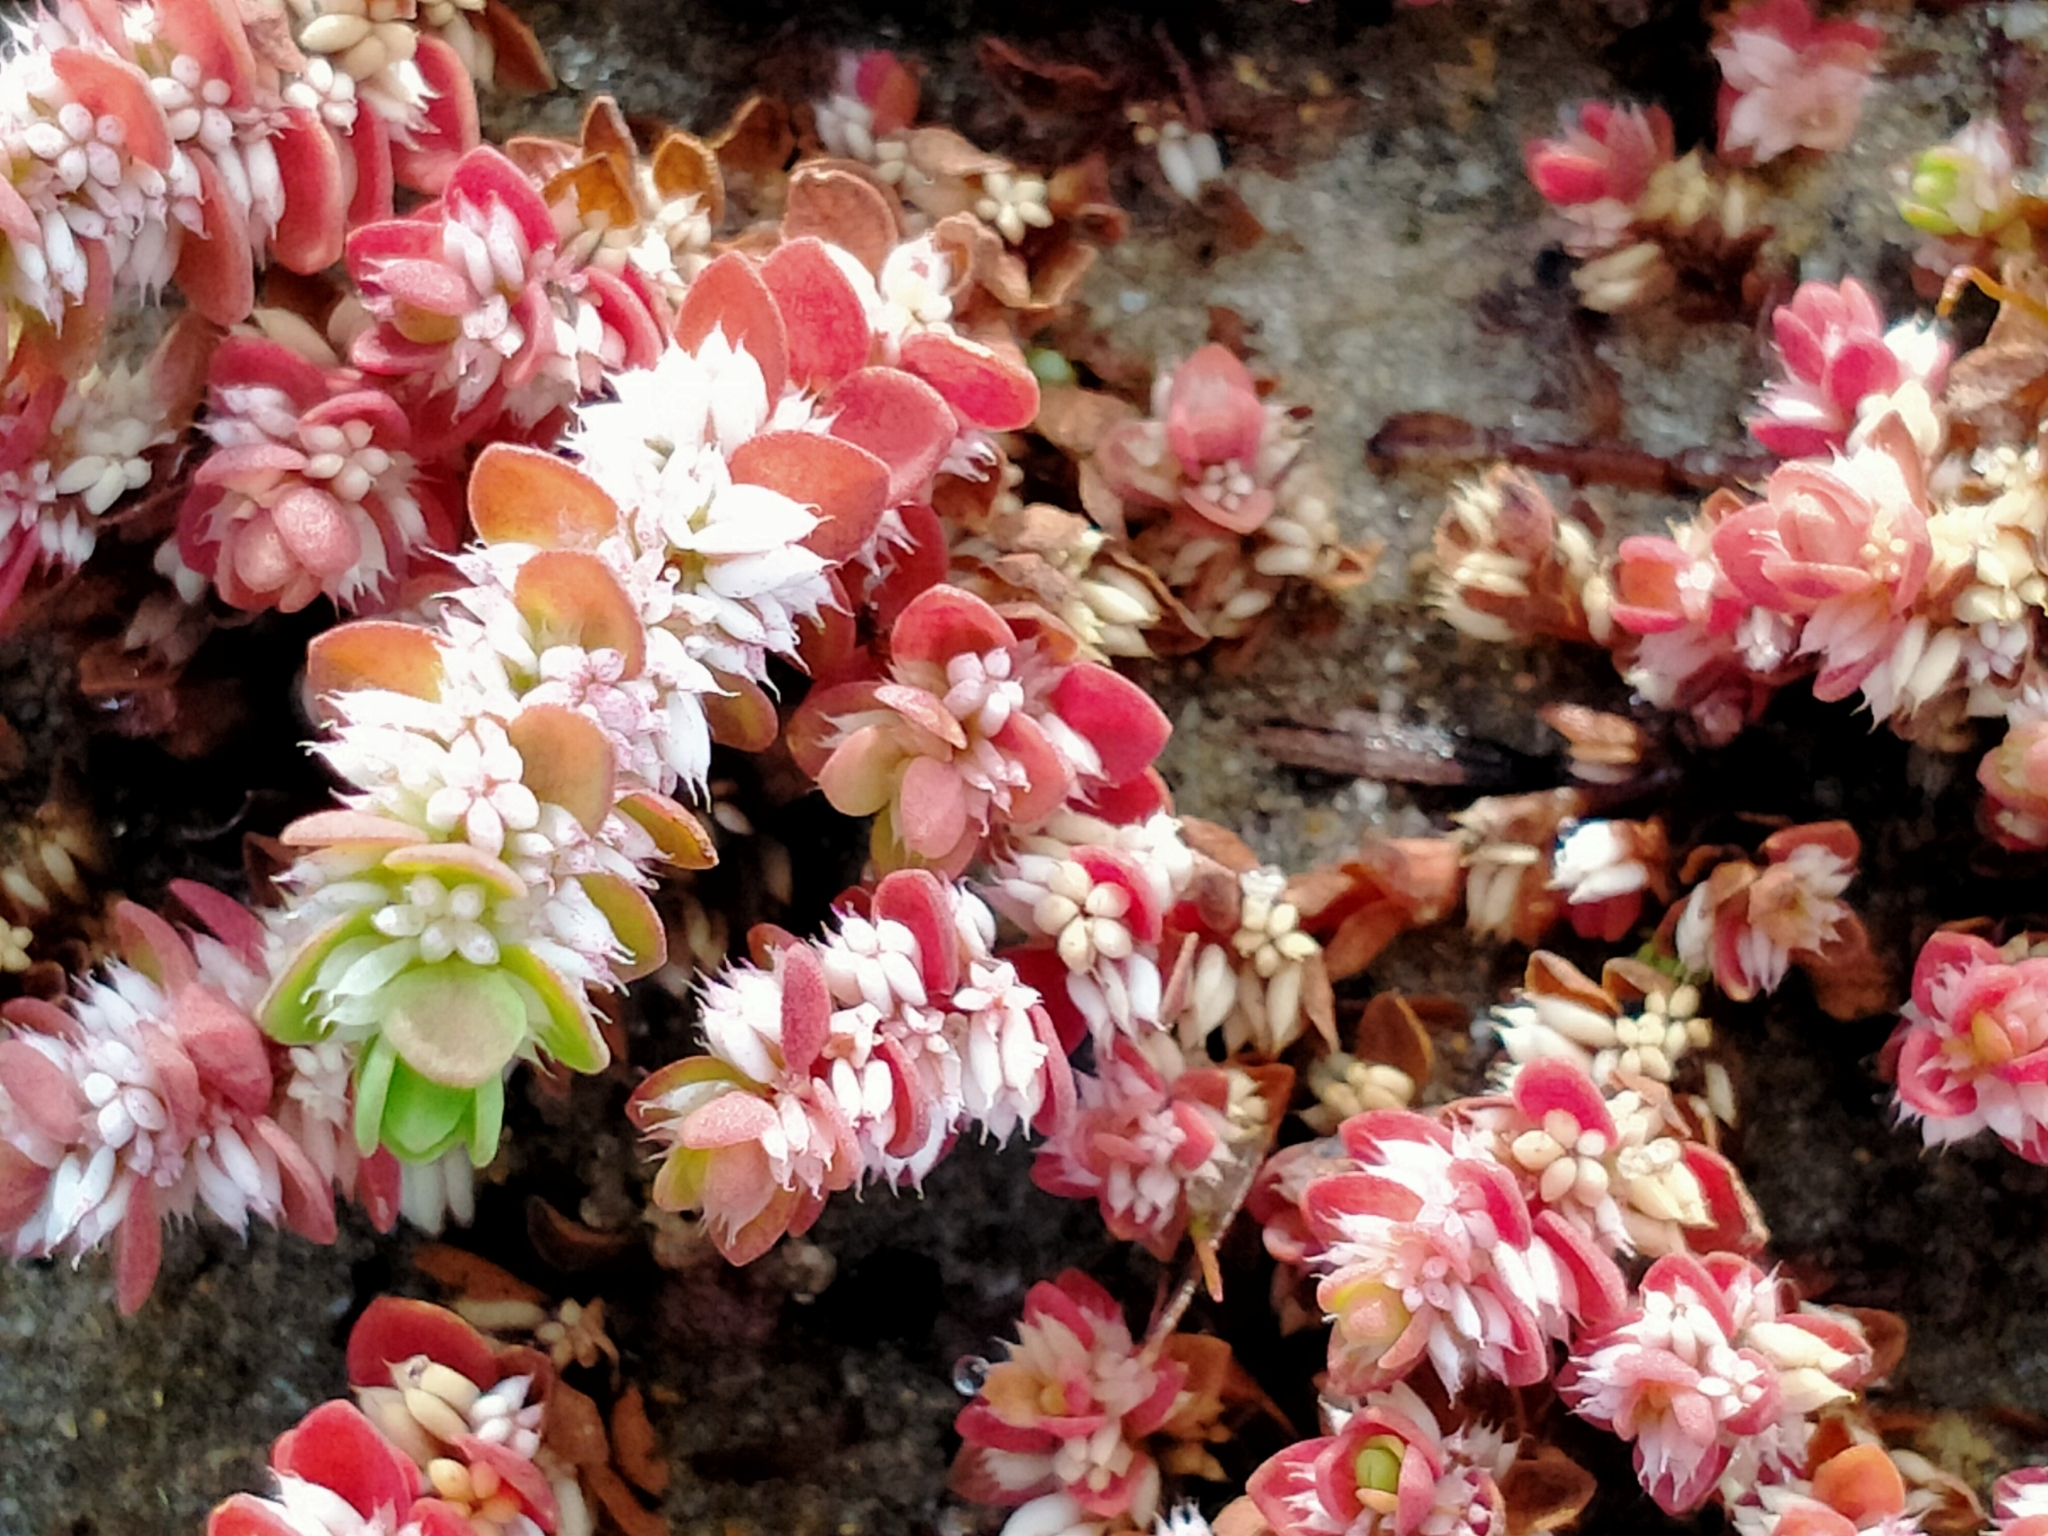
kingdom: Plantae
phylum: Tracheophyta
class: Magnoliopsida
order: Caryophyllales
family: Caryophyllaceae
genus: Illecebrum
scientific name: Illecebrum verticillatum
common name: Coral necklace
